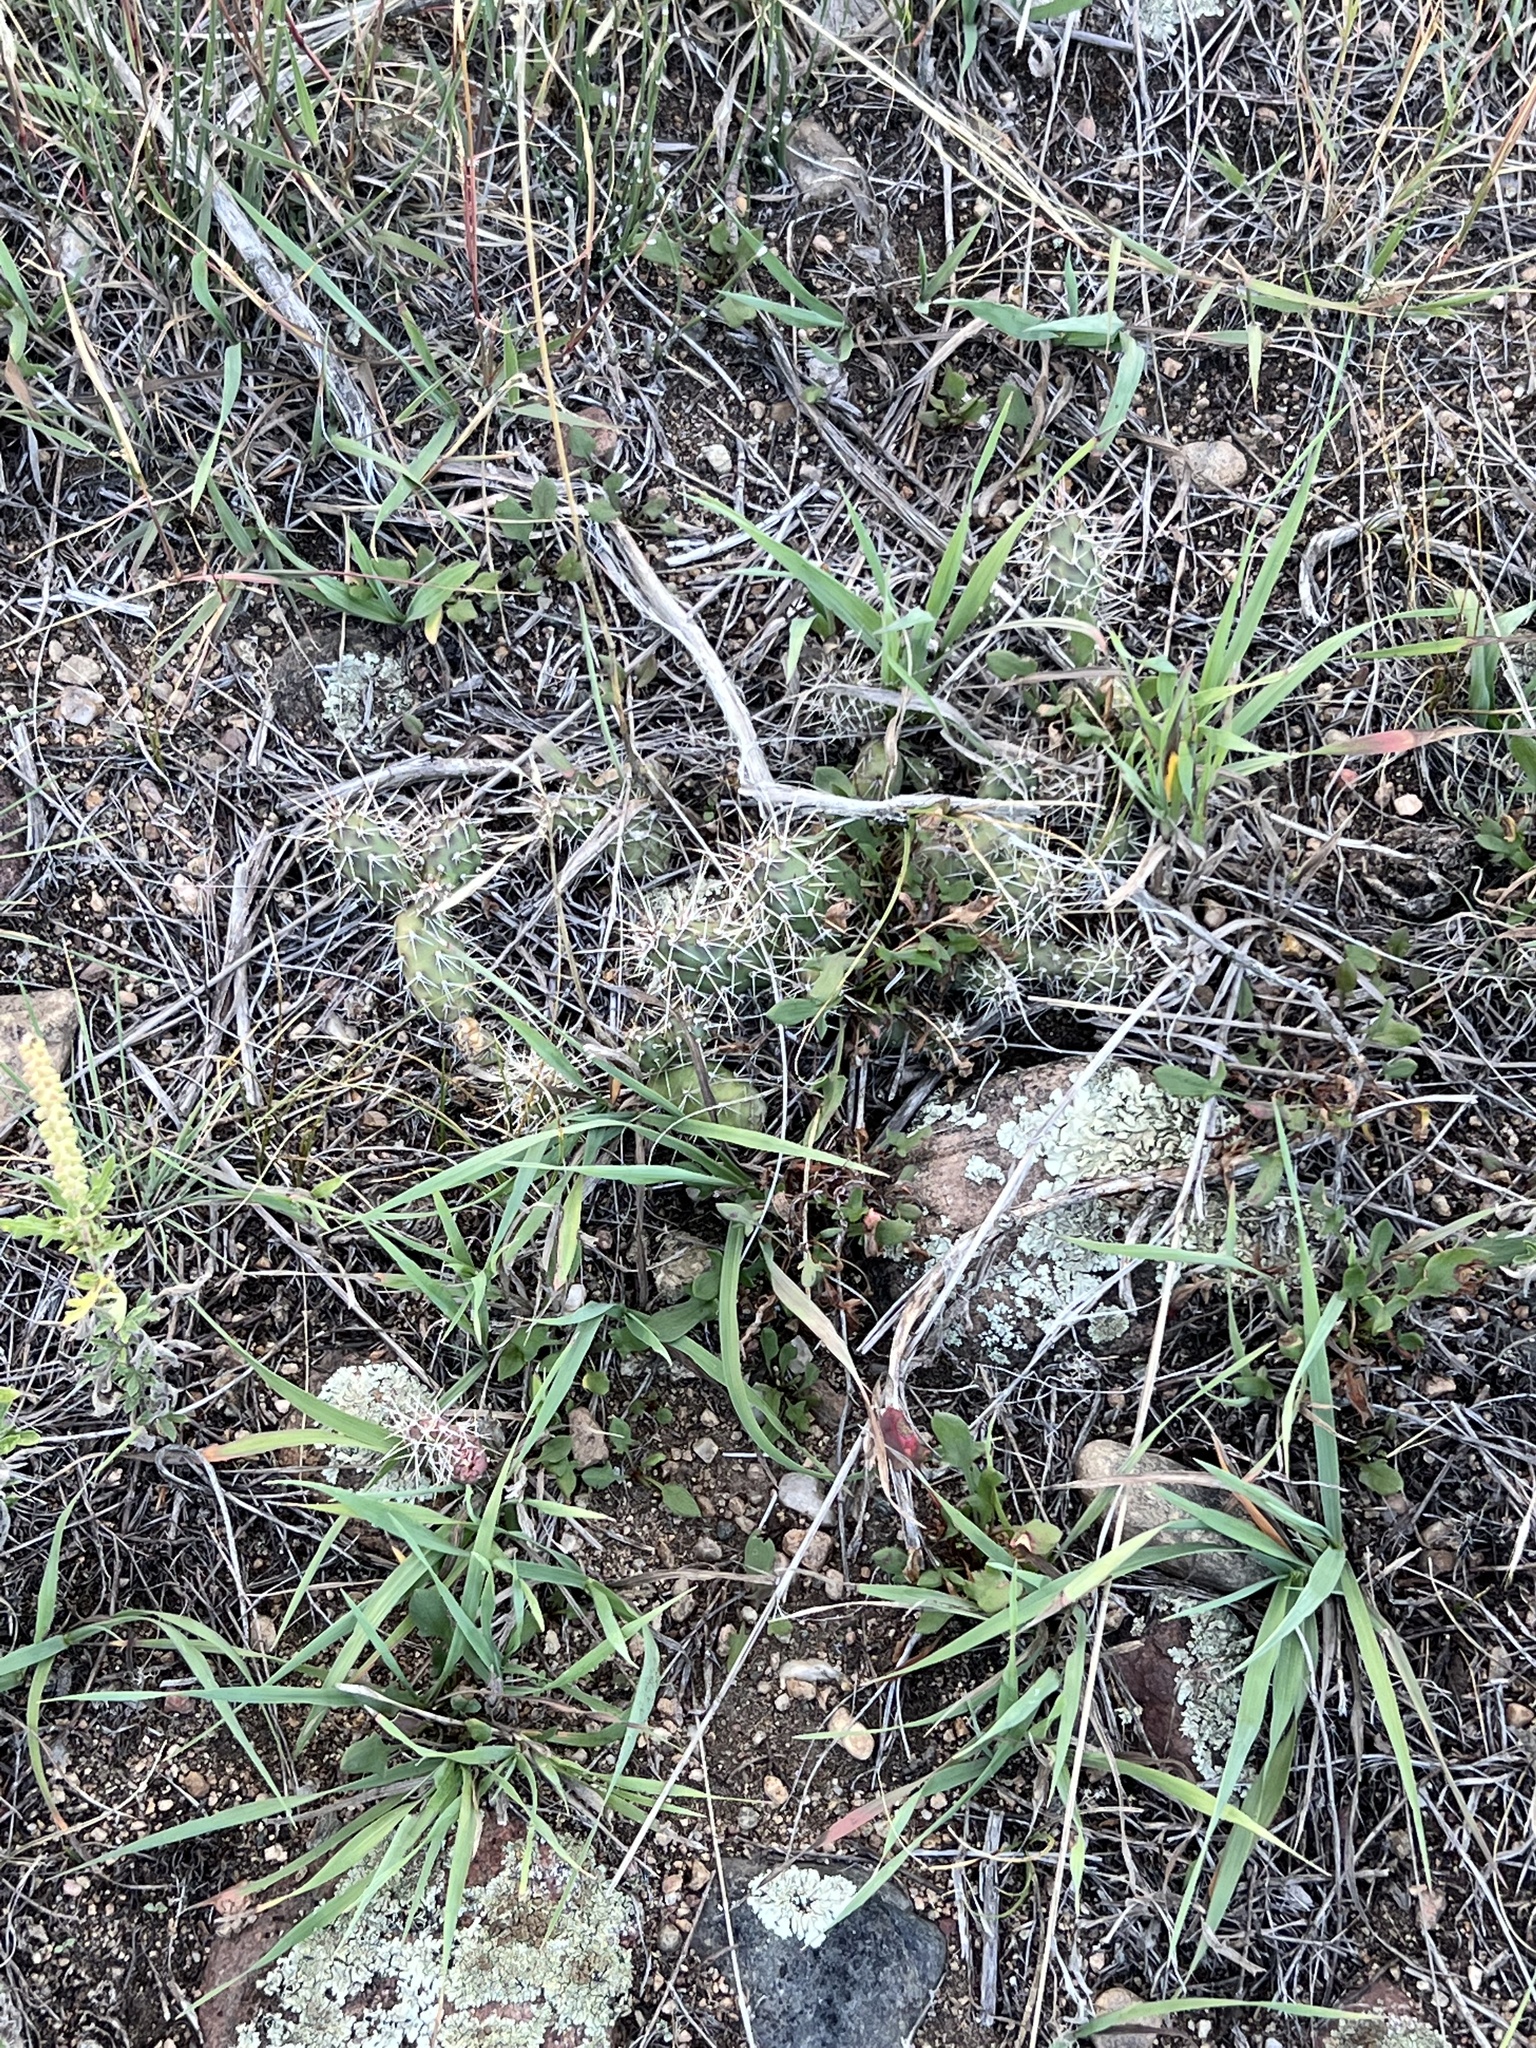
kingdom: Plantae
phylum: Tracheophyta
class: Magnoliopsida
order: Caryophyllales
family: Cactaceae
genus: Opuntia
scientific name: Opuntia fragilis
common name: Brittle cactus
